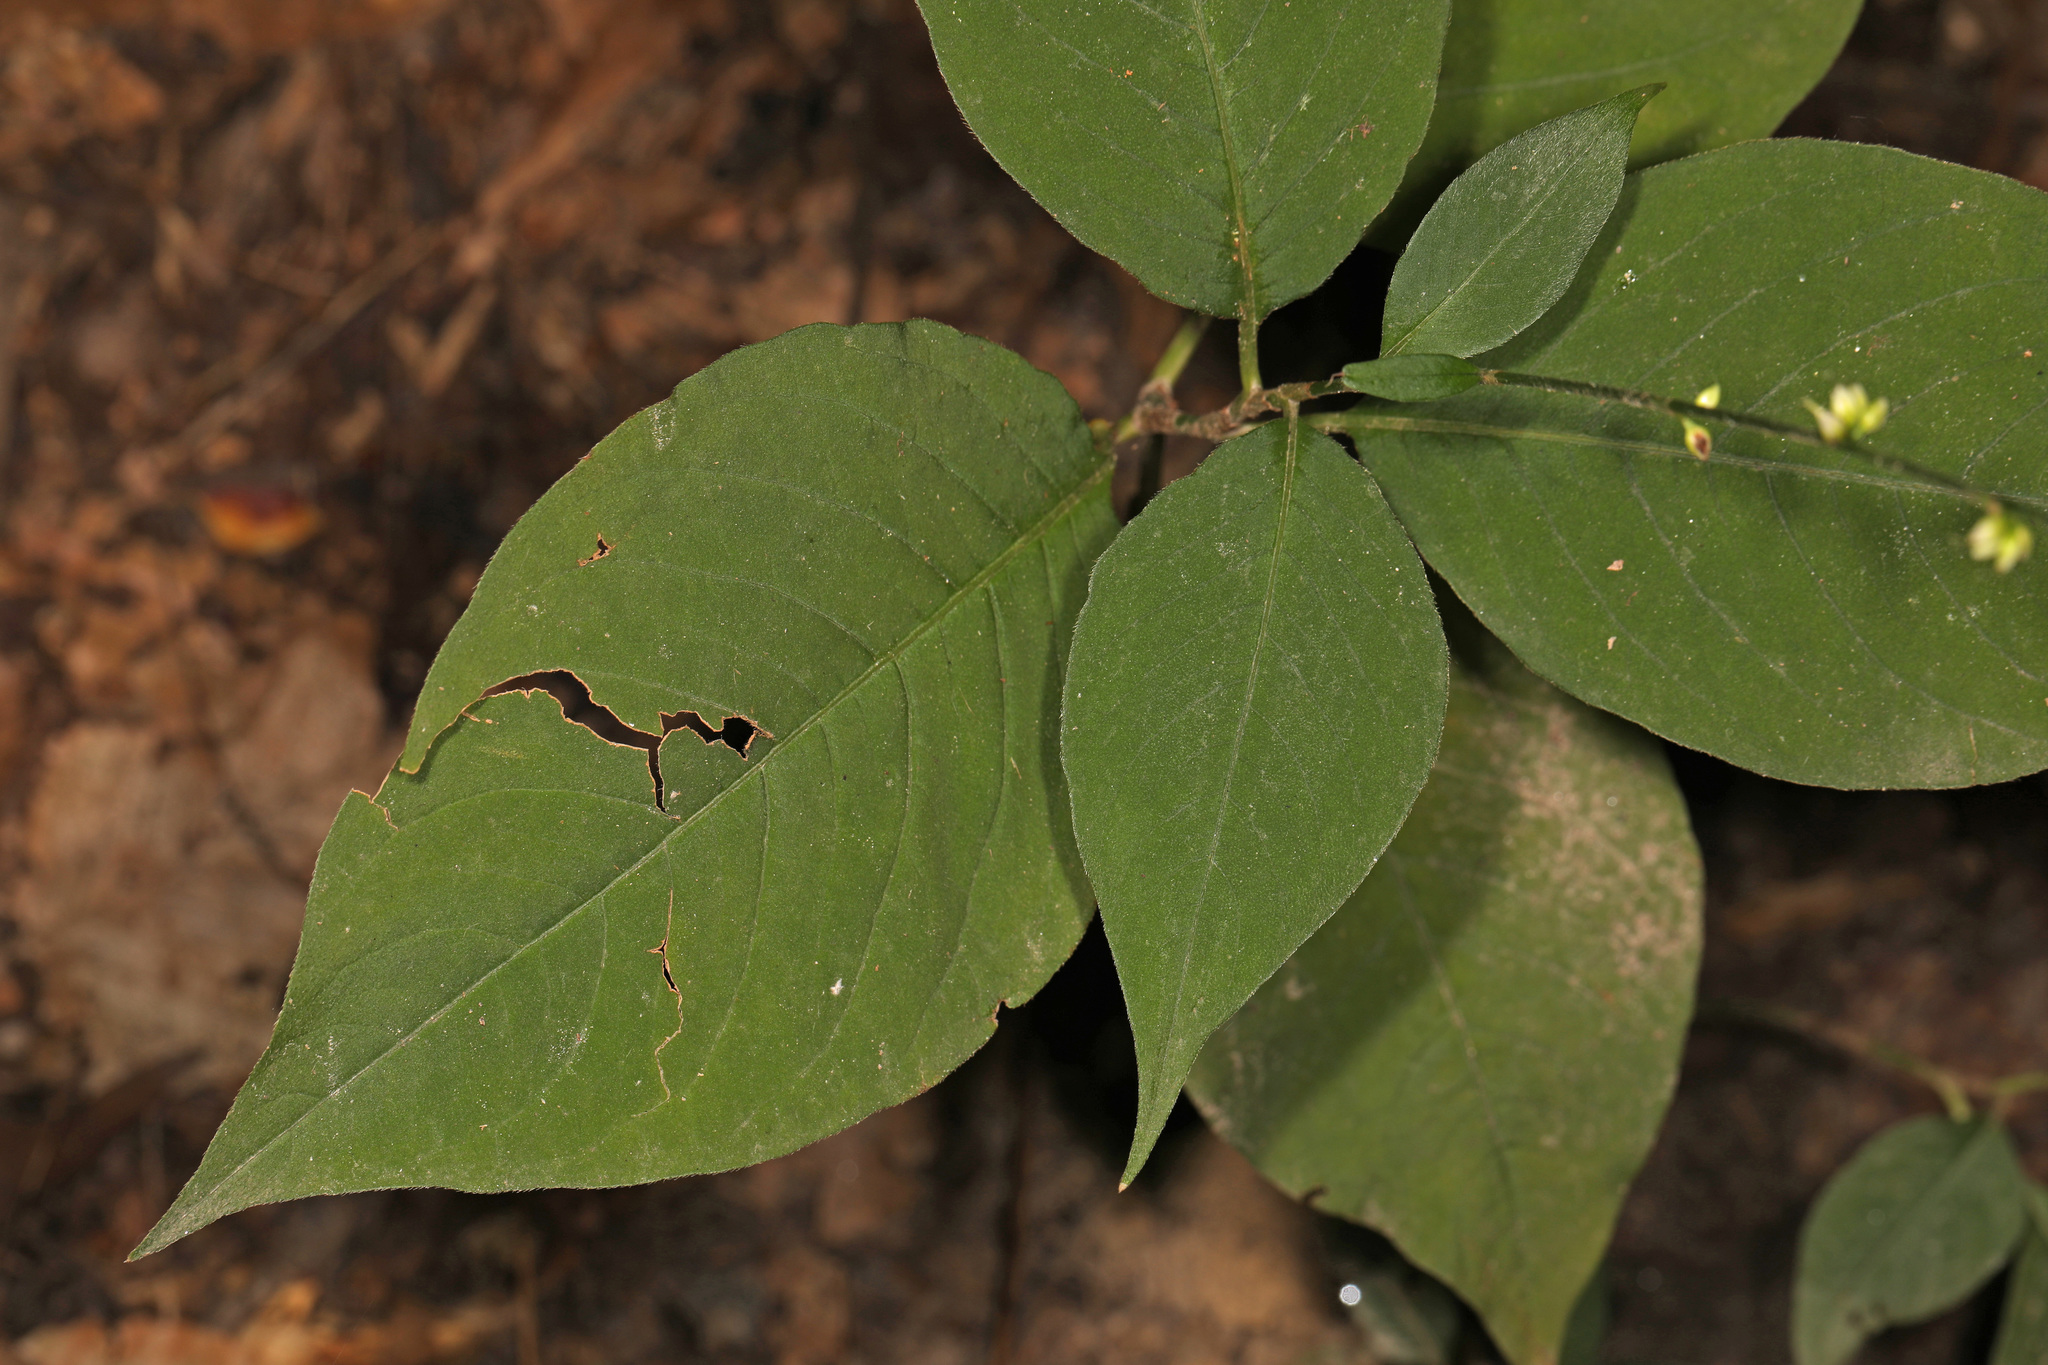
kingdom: Plantae
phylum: Tracheophyta
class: Magnoliopsida
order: Caryophyllales
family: Polygonaceae
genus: Persicaria
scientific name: Persicaria virginiana
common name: Jumpseed
